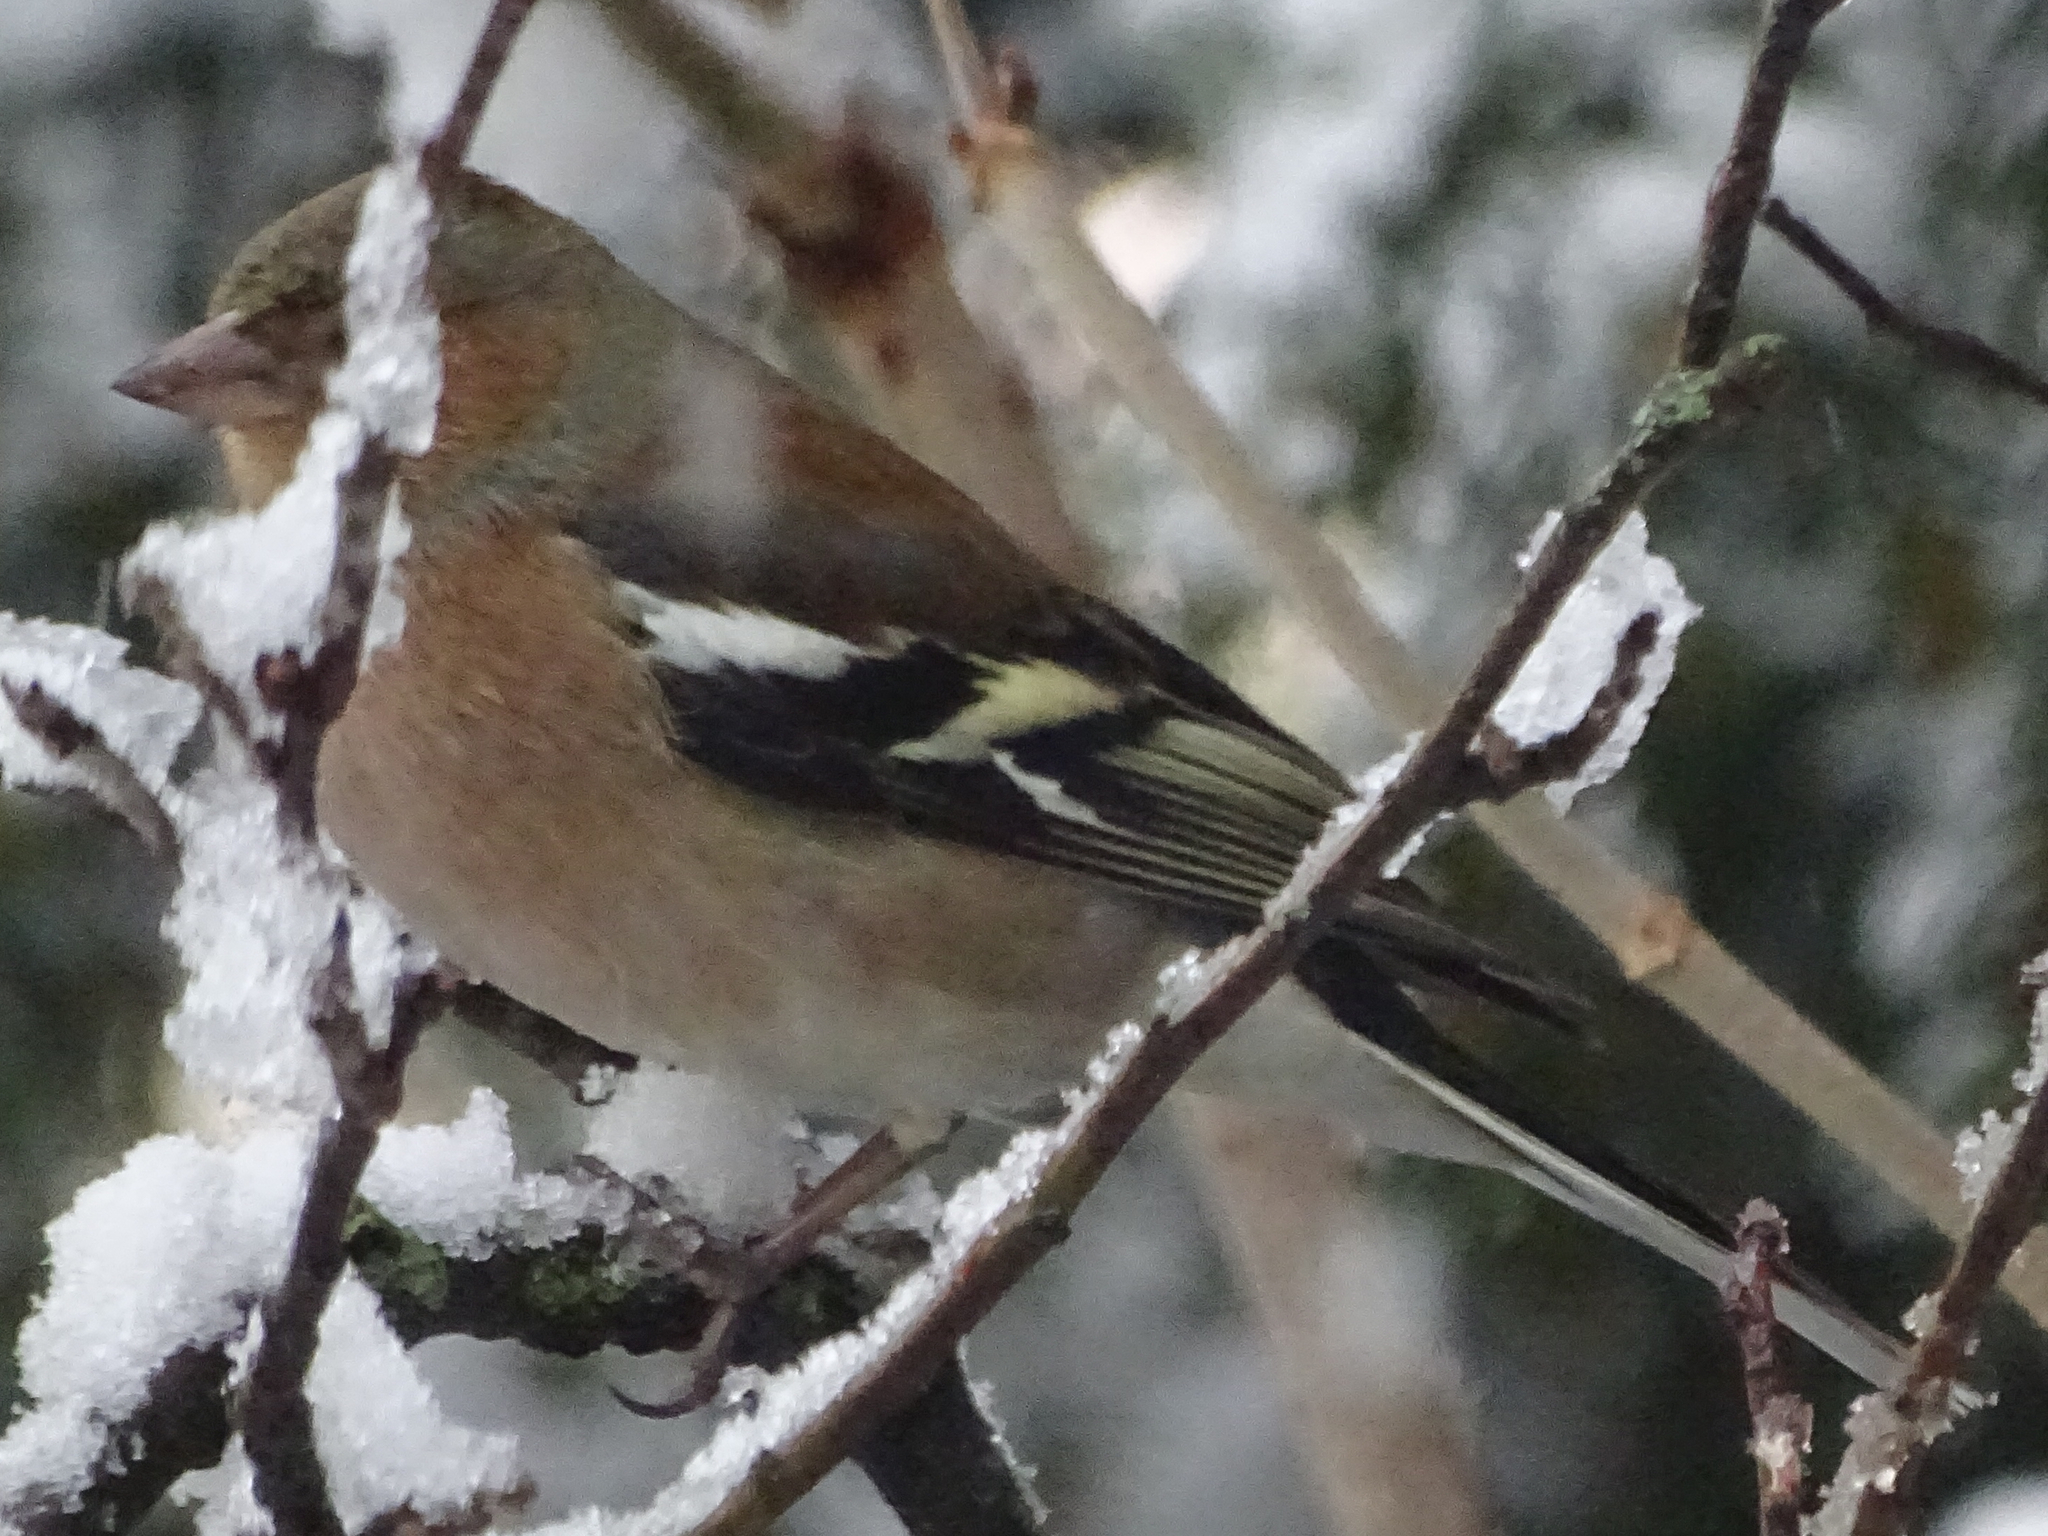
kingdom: Animalia
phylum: Chordata
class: Aves
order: Passeriformes
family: Fringillidae
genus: Fringilla
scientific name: Fringilla coelebs
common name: Common chaffinch
